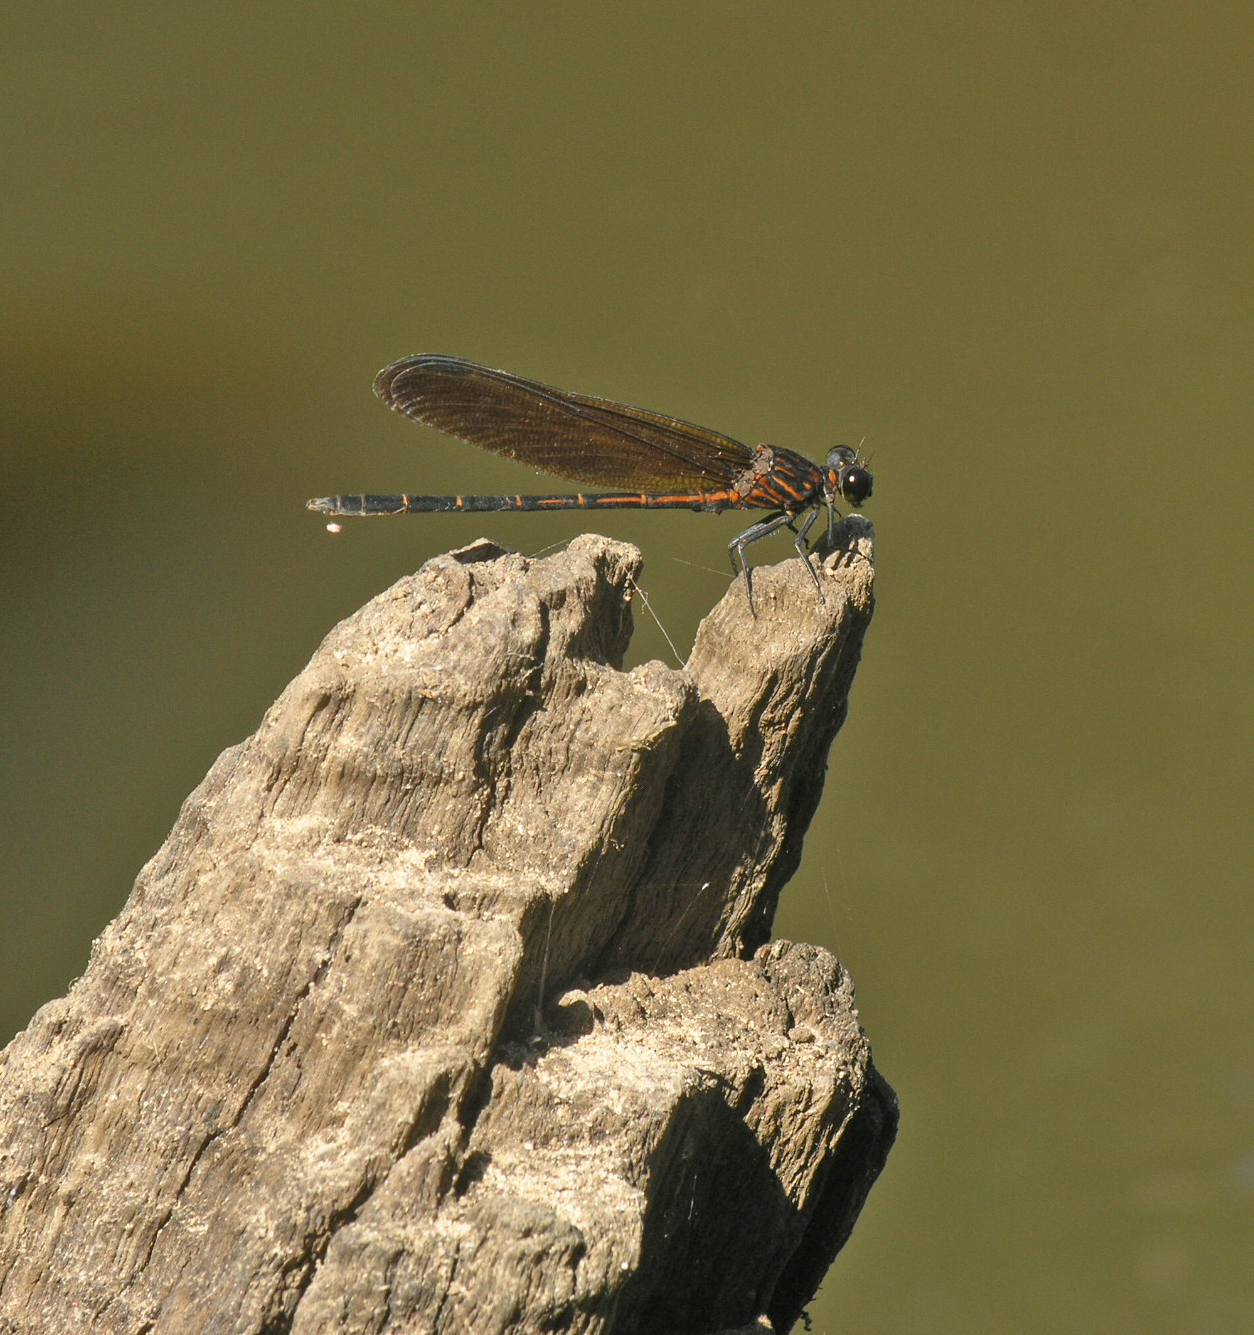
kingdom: Animalia
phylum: Arthropoda
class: Insecta
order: Odonata
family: Euphaeidae
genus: Dysphaea
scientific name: Dysphaea gloriosa
